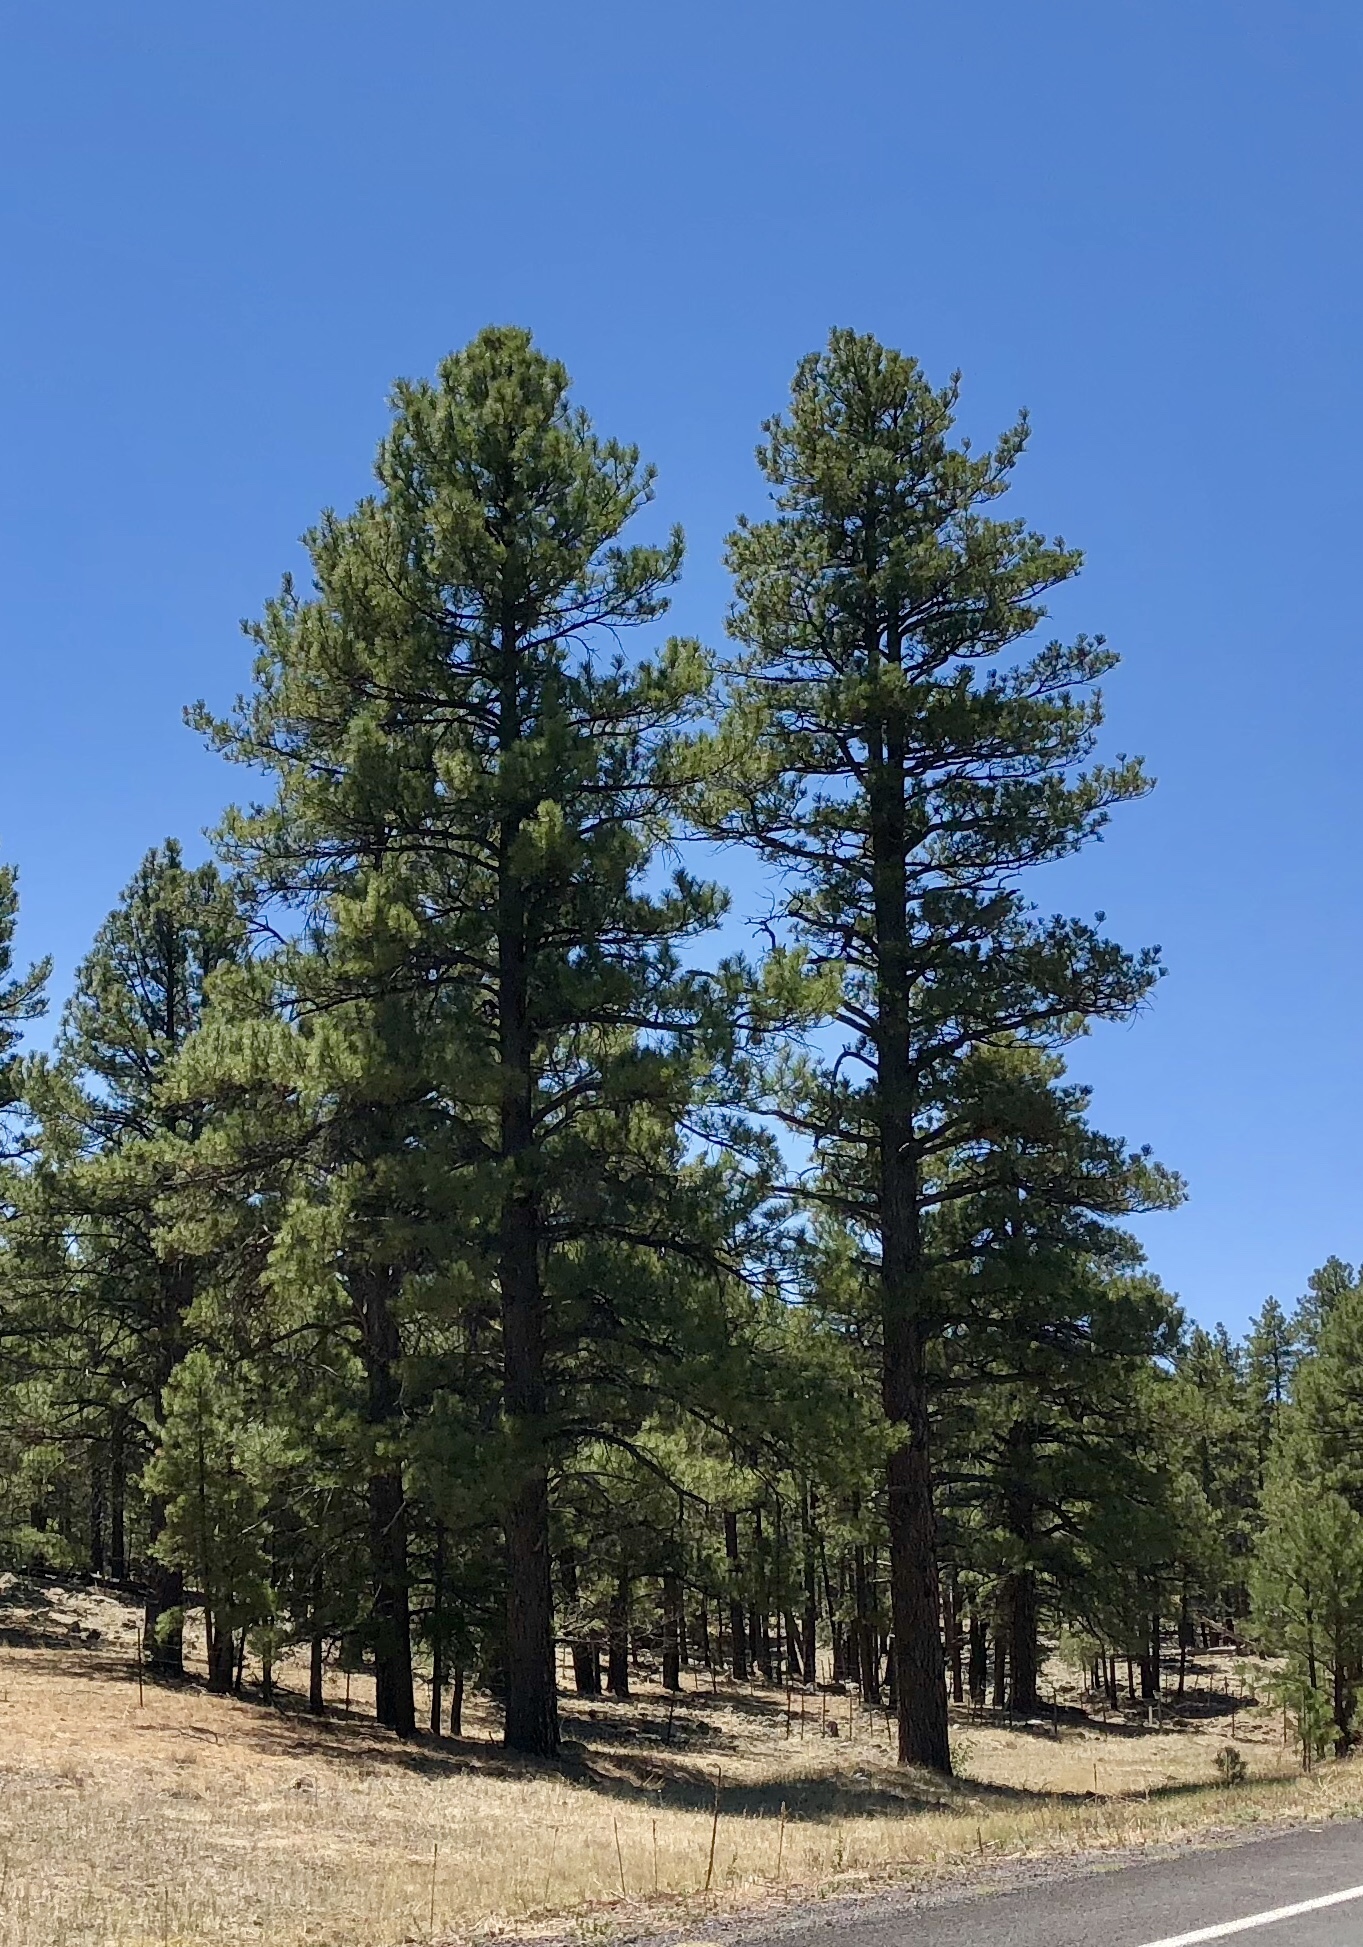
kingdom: Plantae
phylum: Tracheophyta
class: Pinopsida
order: Pinales
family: Pinaceae
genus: Pinus
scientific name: Pinus ponderosa
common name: Western yellow-pine
